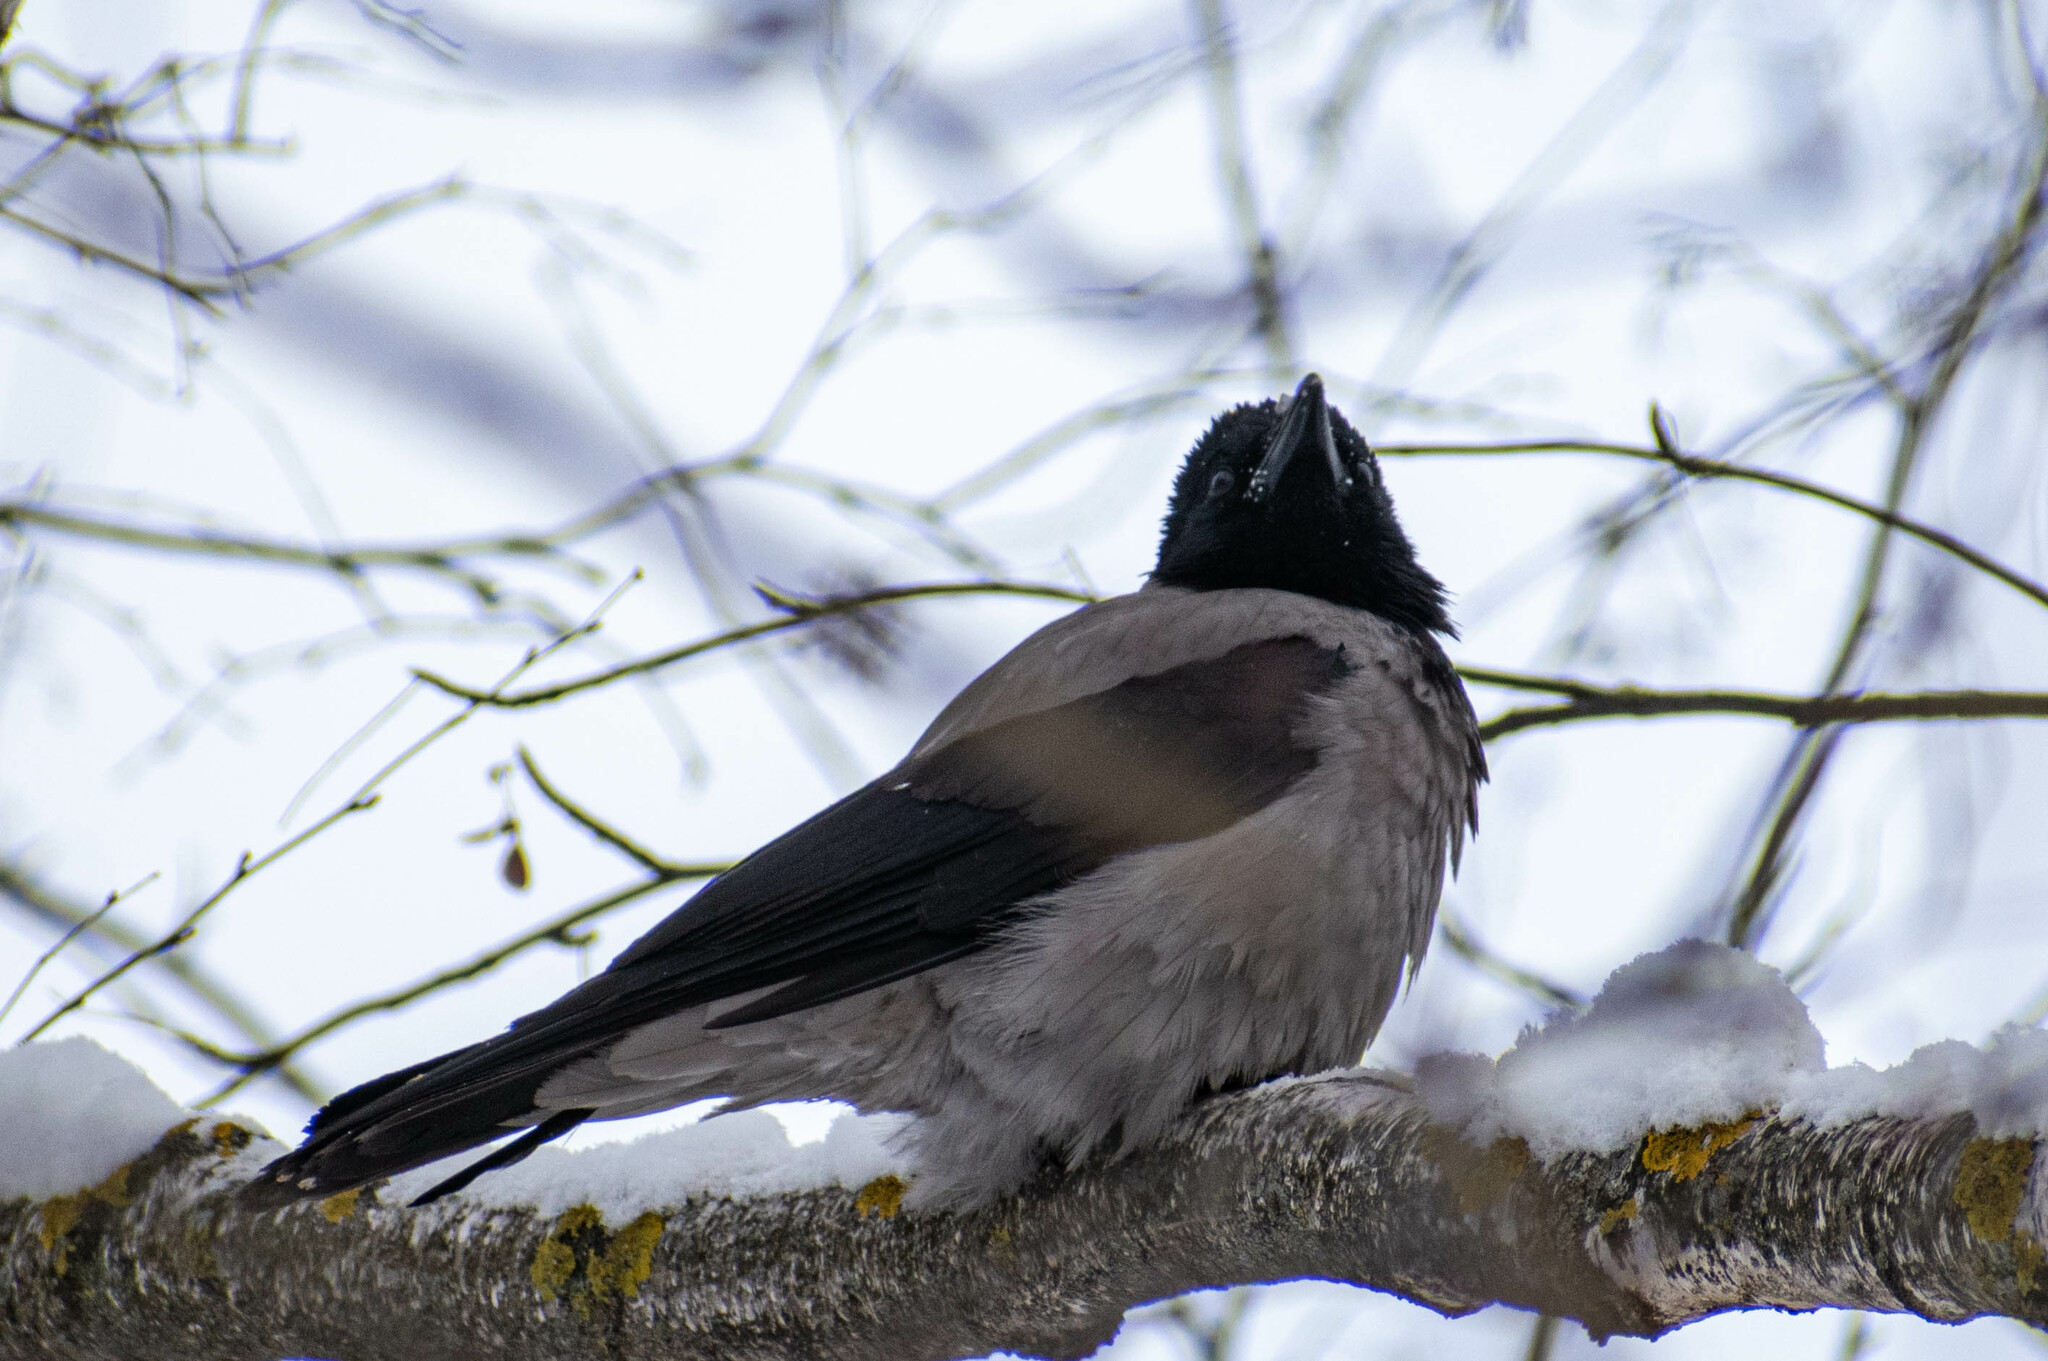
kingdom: Animalia
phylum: Chordata
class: Aves
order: Passeriformes
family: Corvidae
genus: Corvus
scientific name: Corvus cornix
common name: Hooded crow
